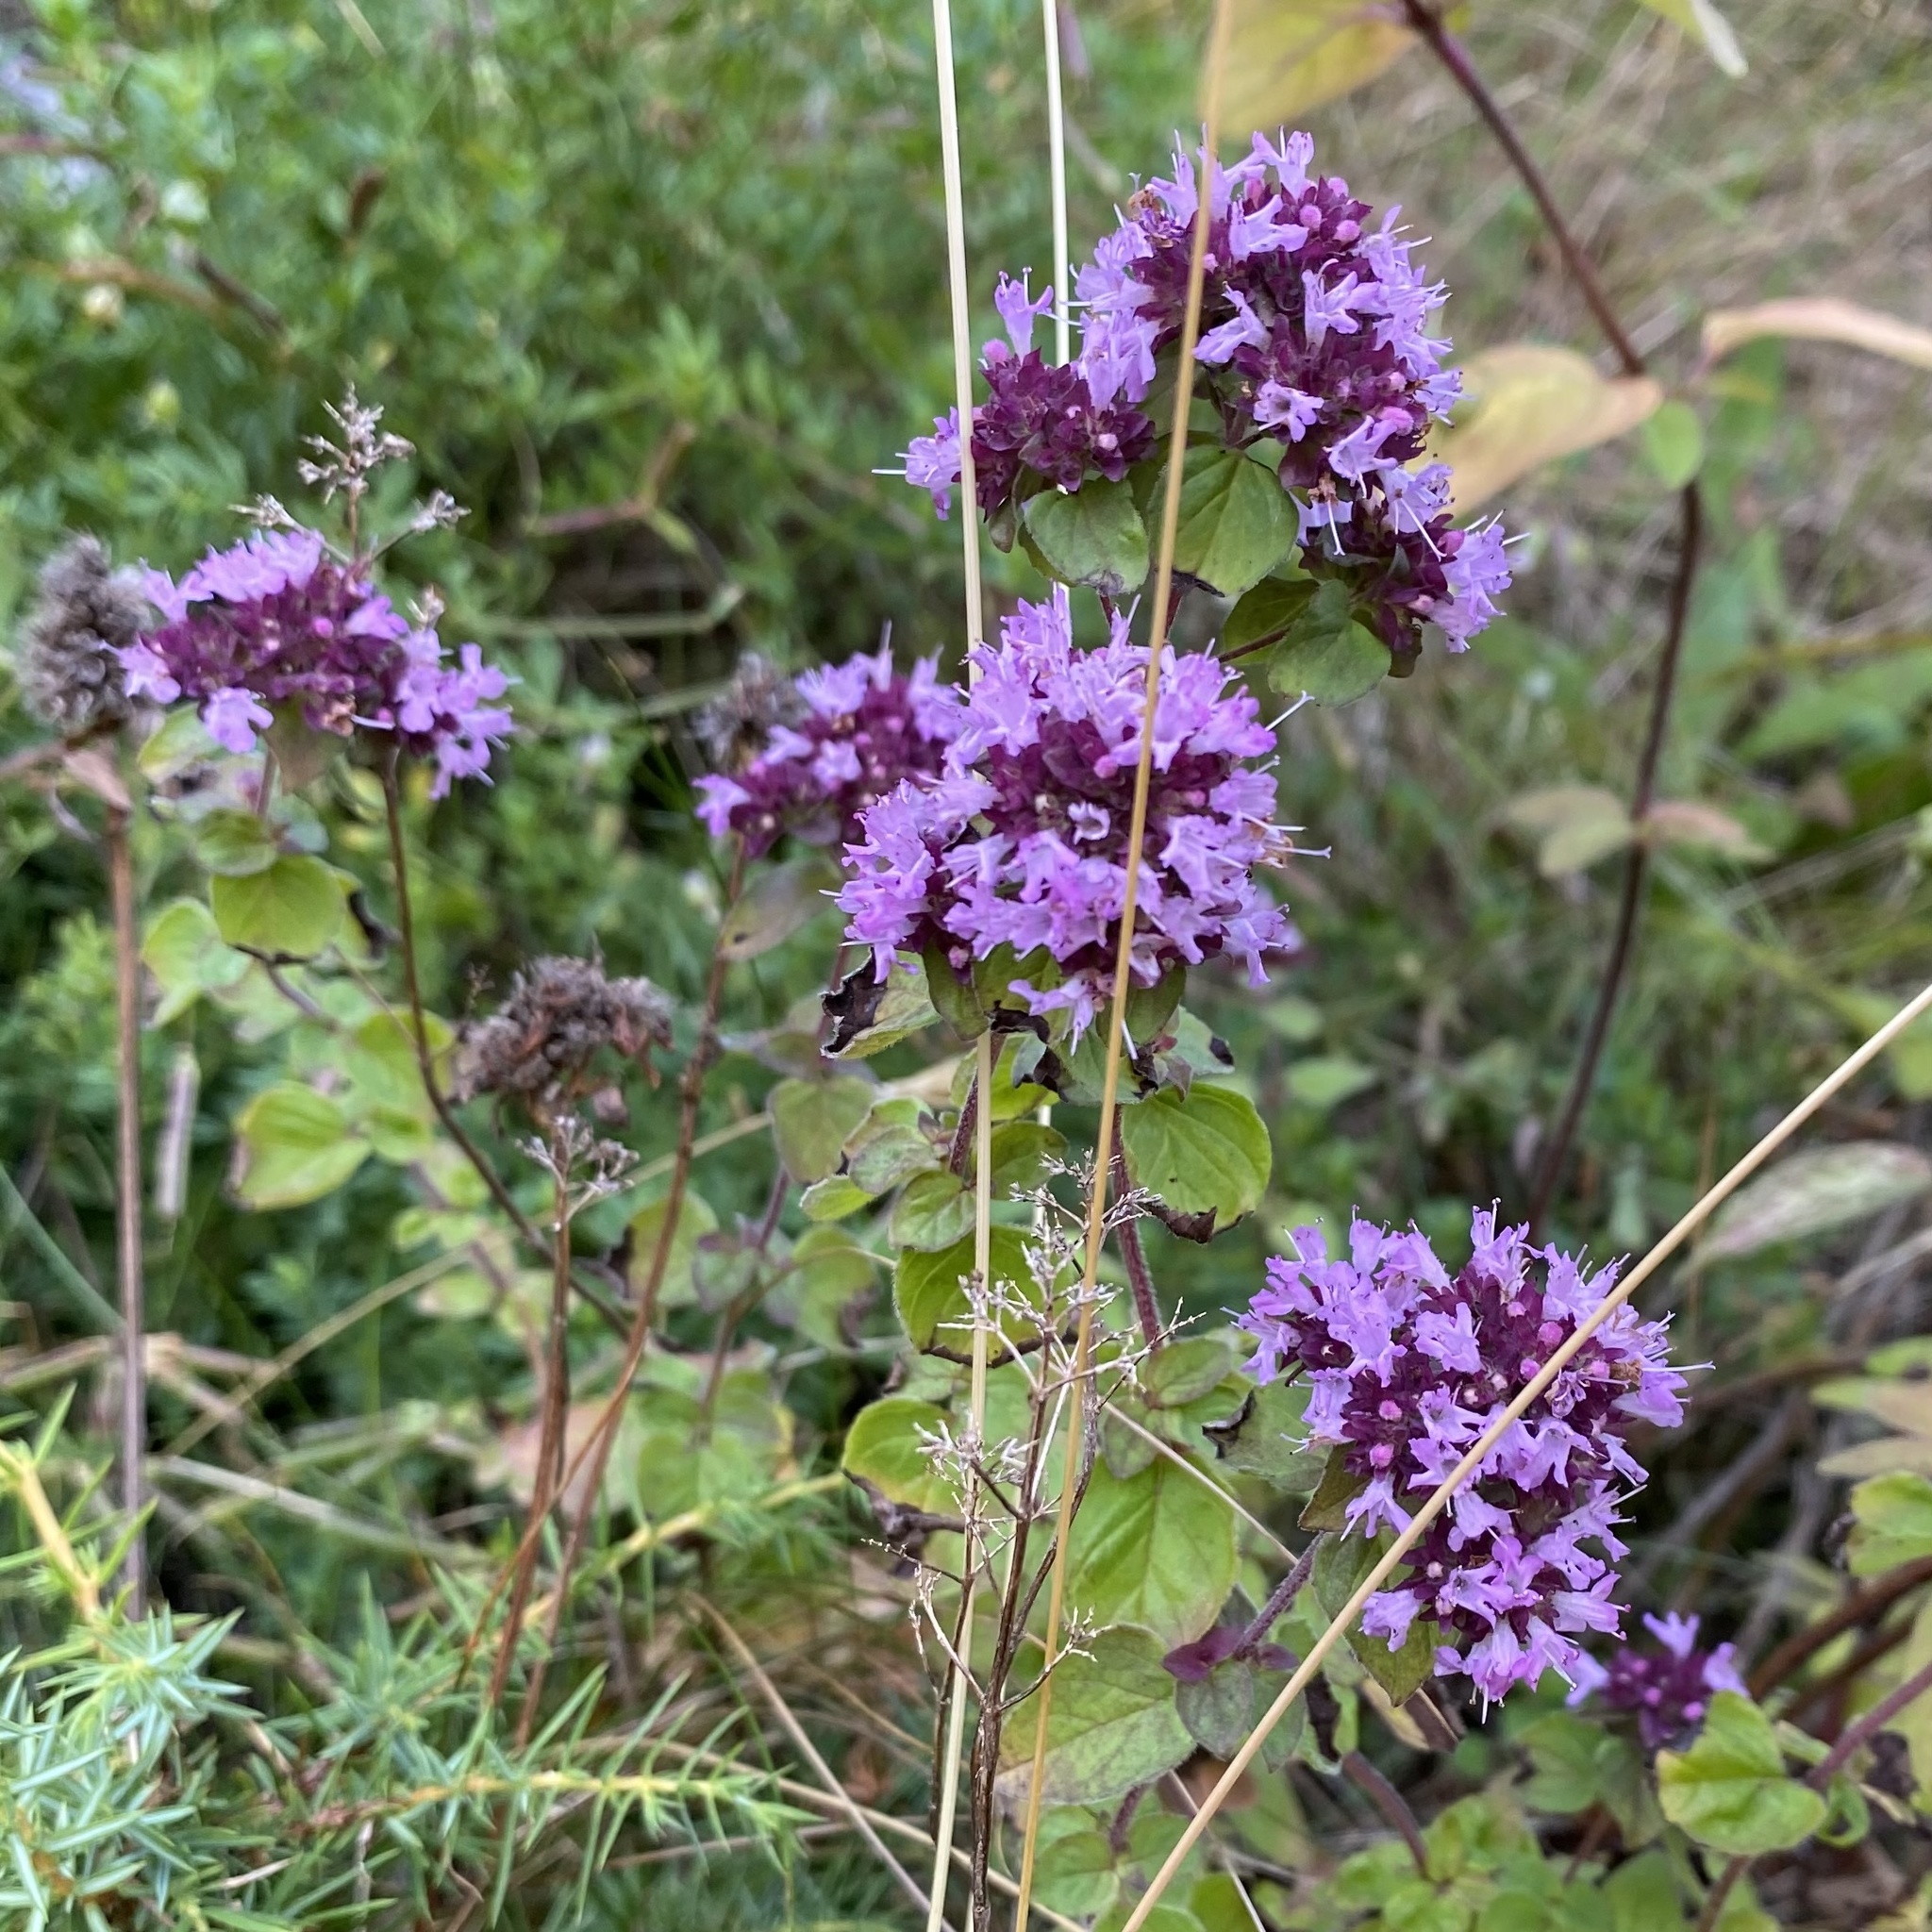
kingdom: Plantae
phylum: Tracheophyta
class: Magnoliopsida
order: Lamiales
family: Lamiaceae
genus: Origanum
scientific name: Origanum vulgare
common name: Wild marjoram
